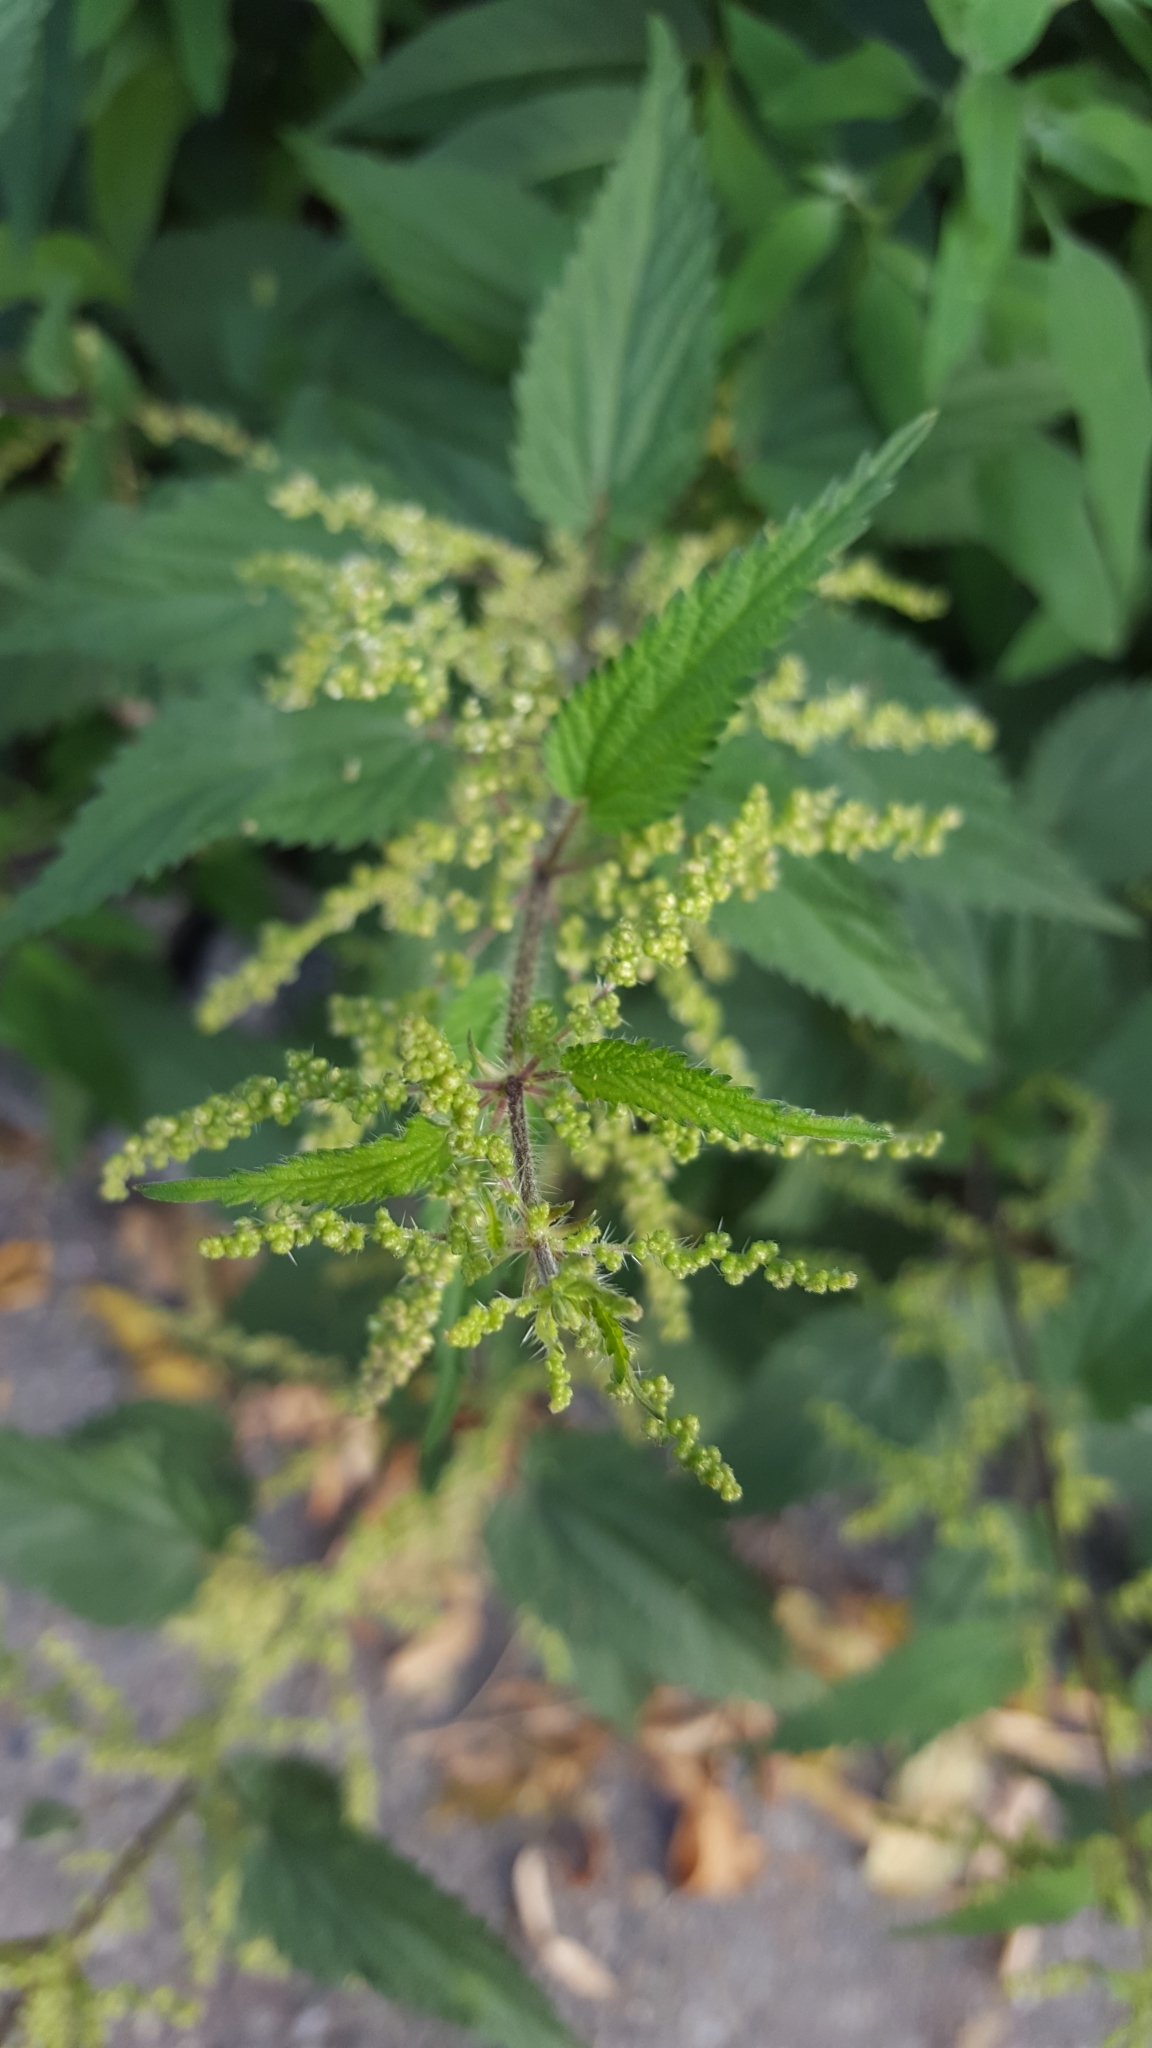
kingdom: Plantae
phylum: Tracheophyta
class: Magnoliopsida
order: Rosales
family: Urticaceae
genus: Urtica
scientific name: Urtica dioica
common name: Common nettle
